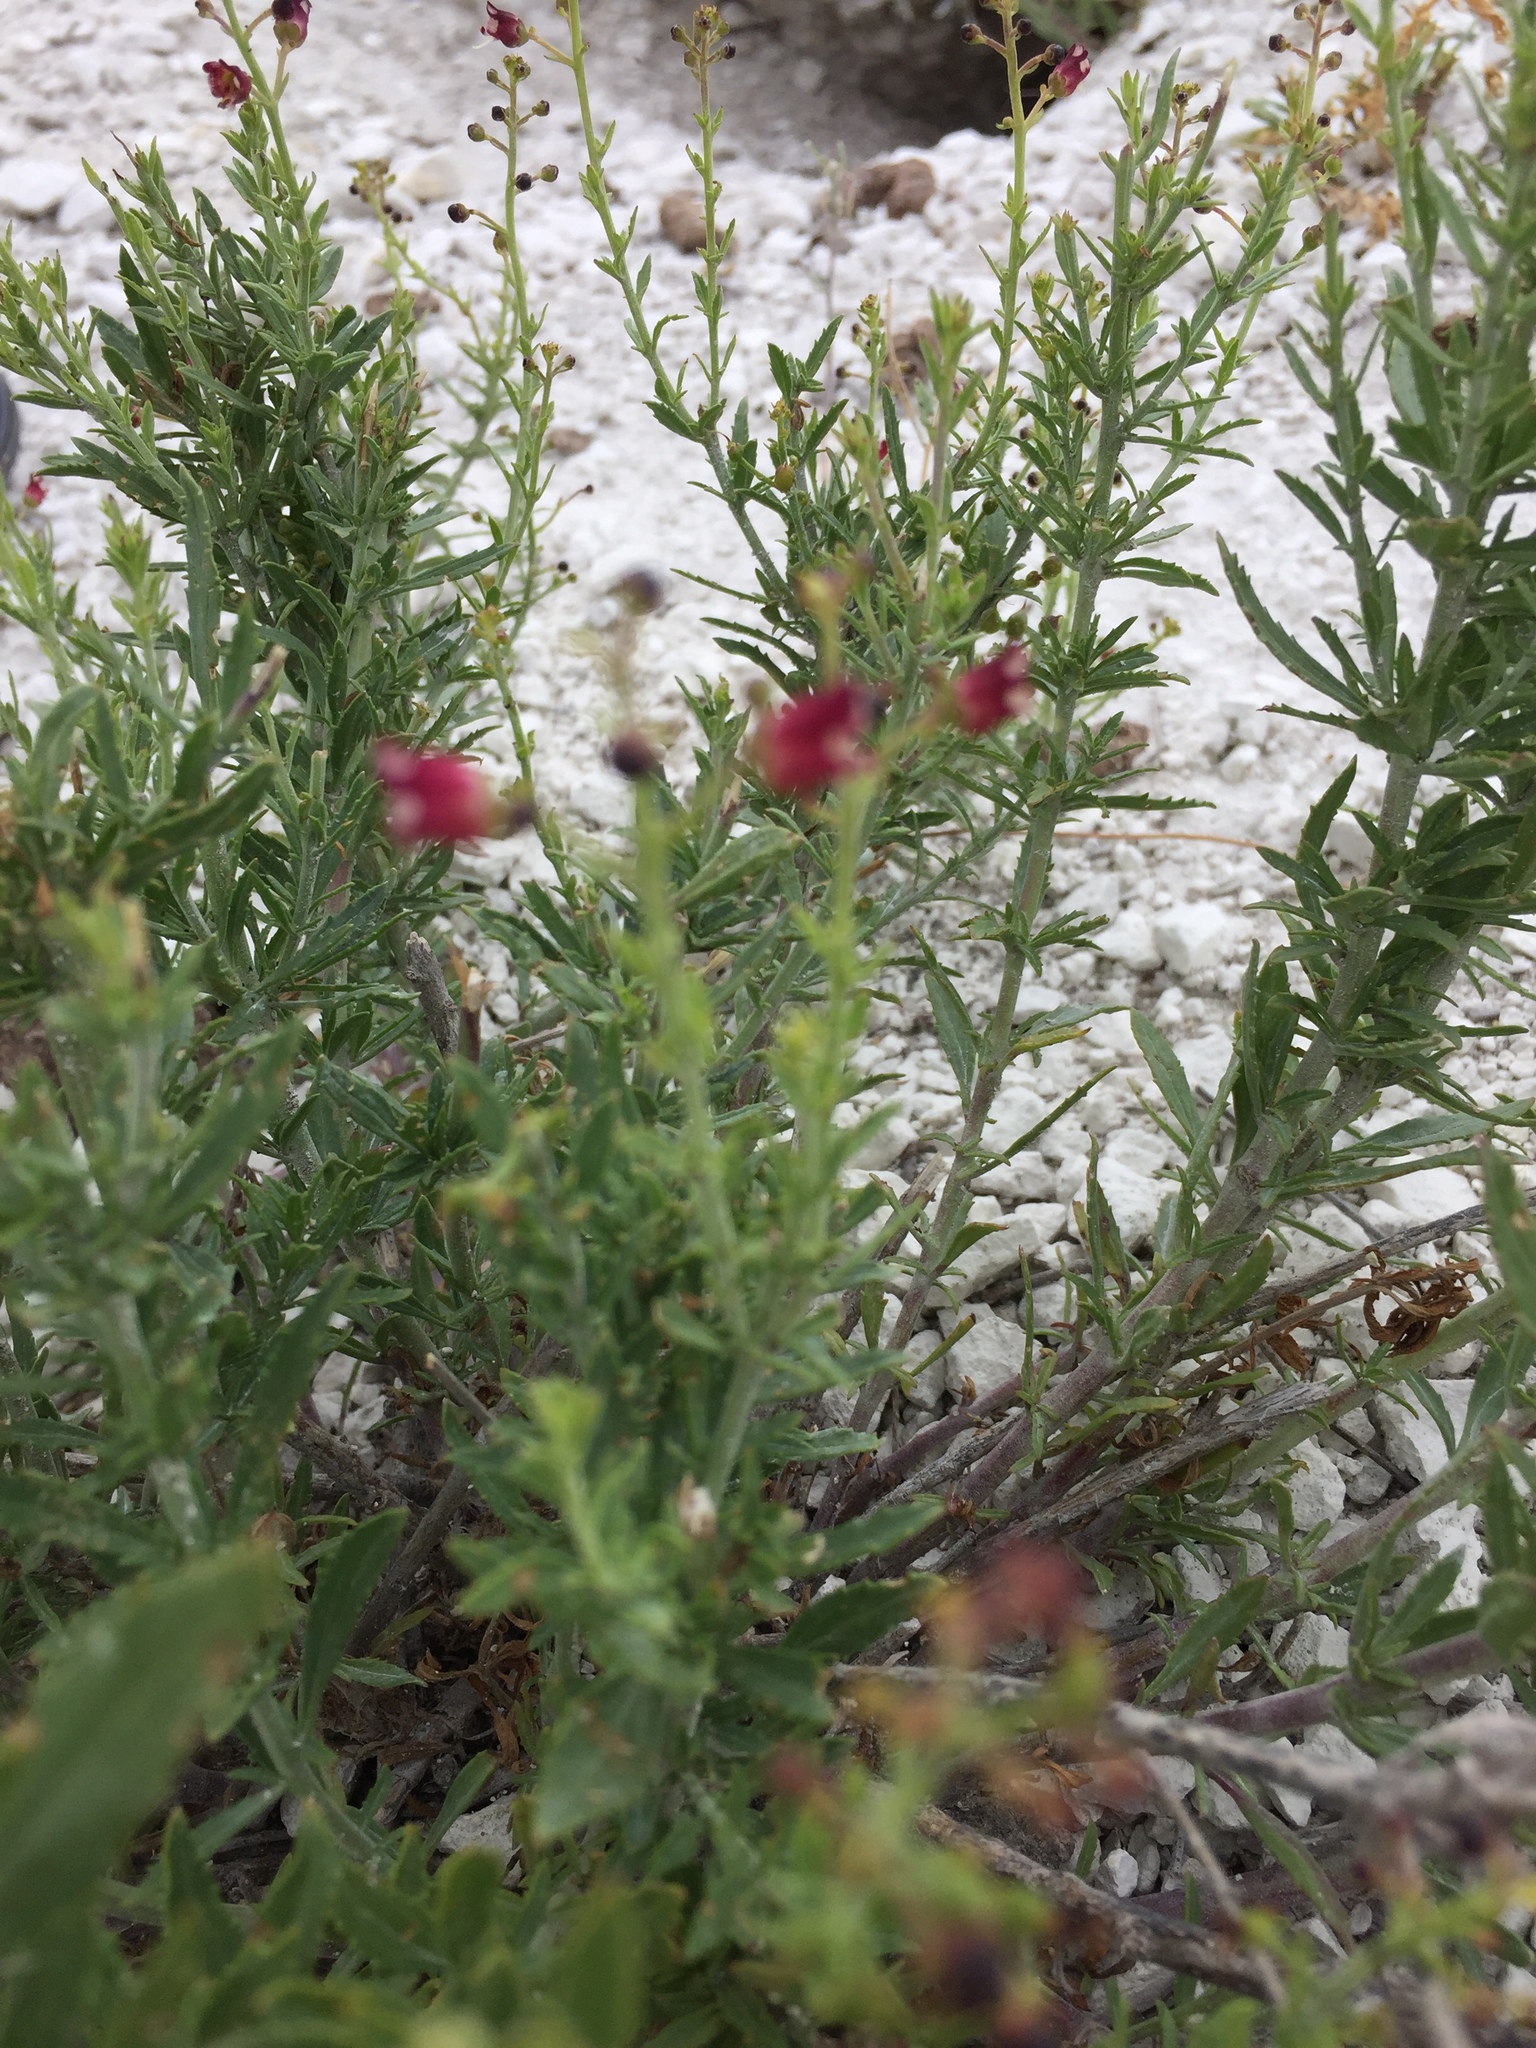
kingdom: Plantae
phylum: Tracheophyta
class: Magnoliopsida
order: Lamiales
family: Scrophulariaceae
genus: Scrophularia
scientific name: Scrophularia cretacea
